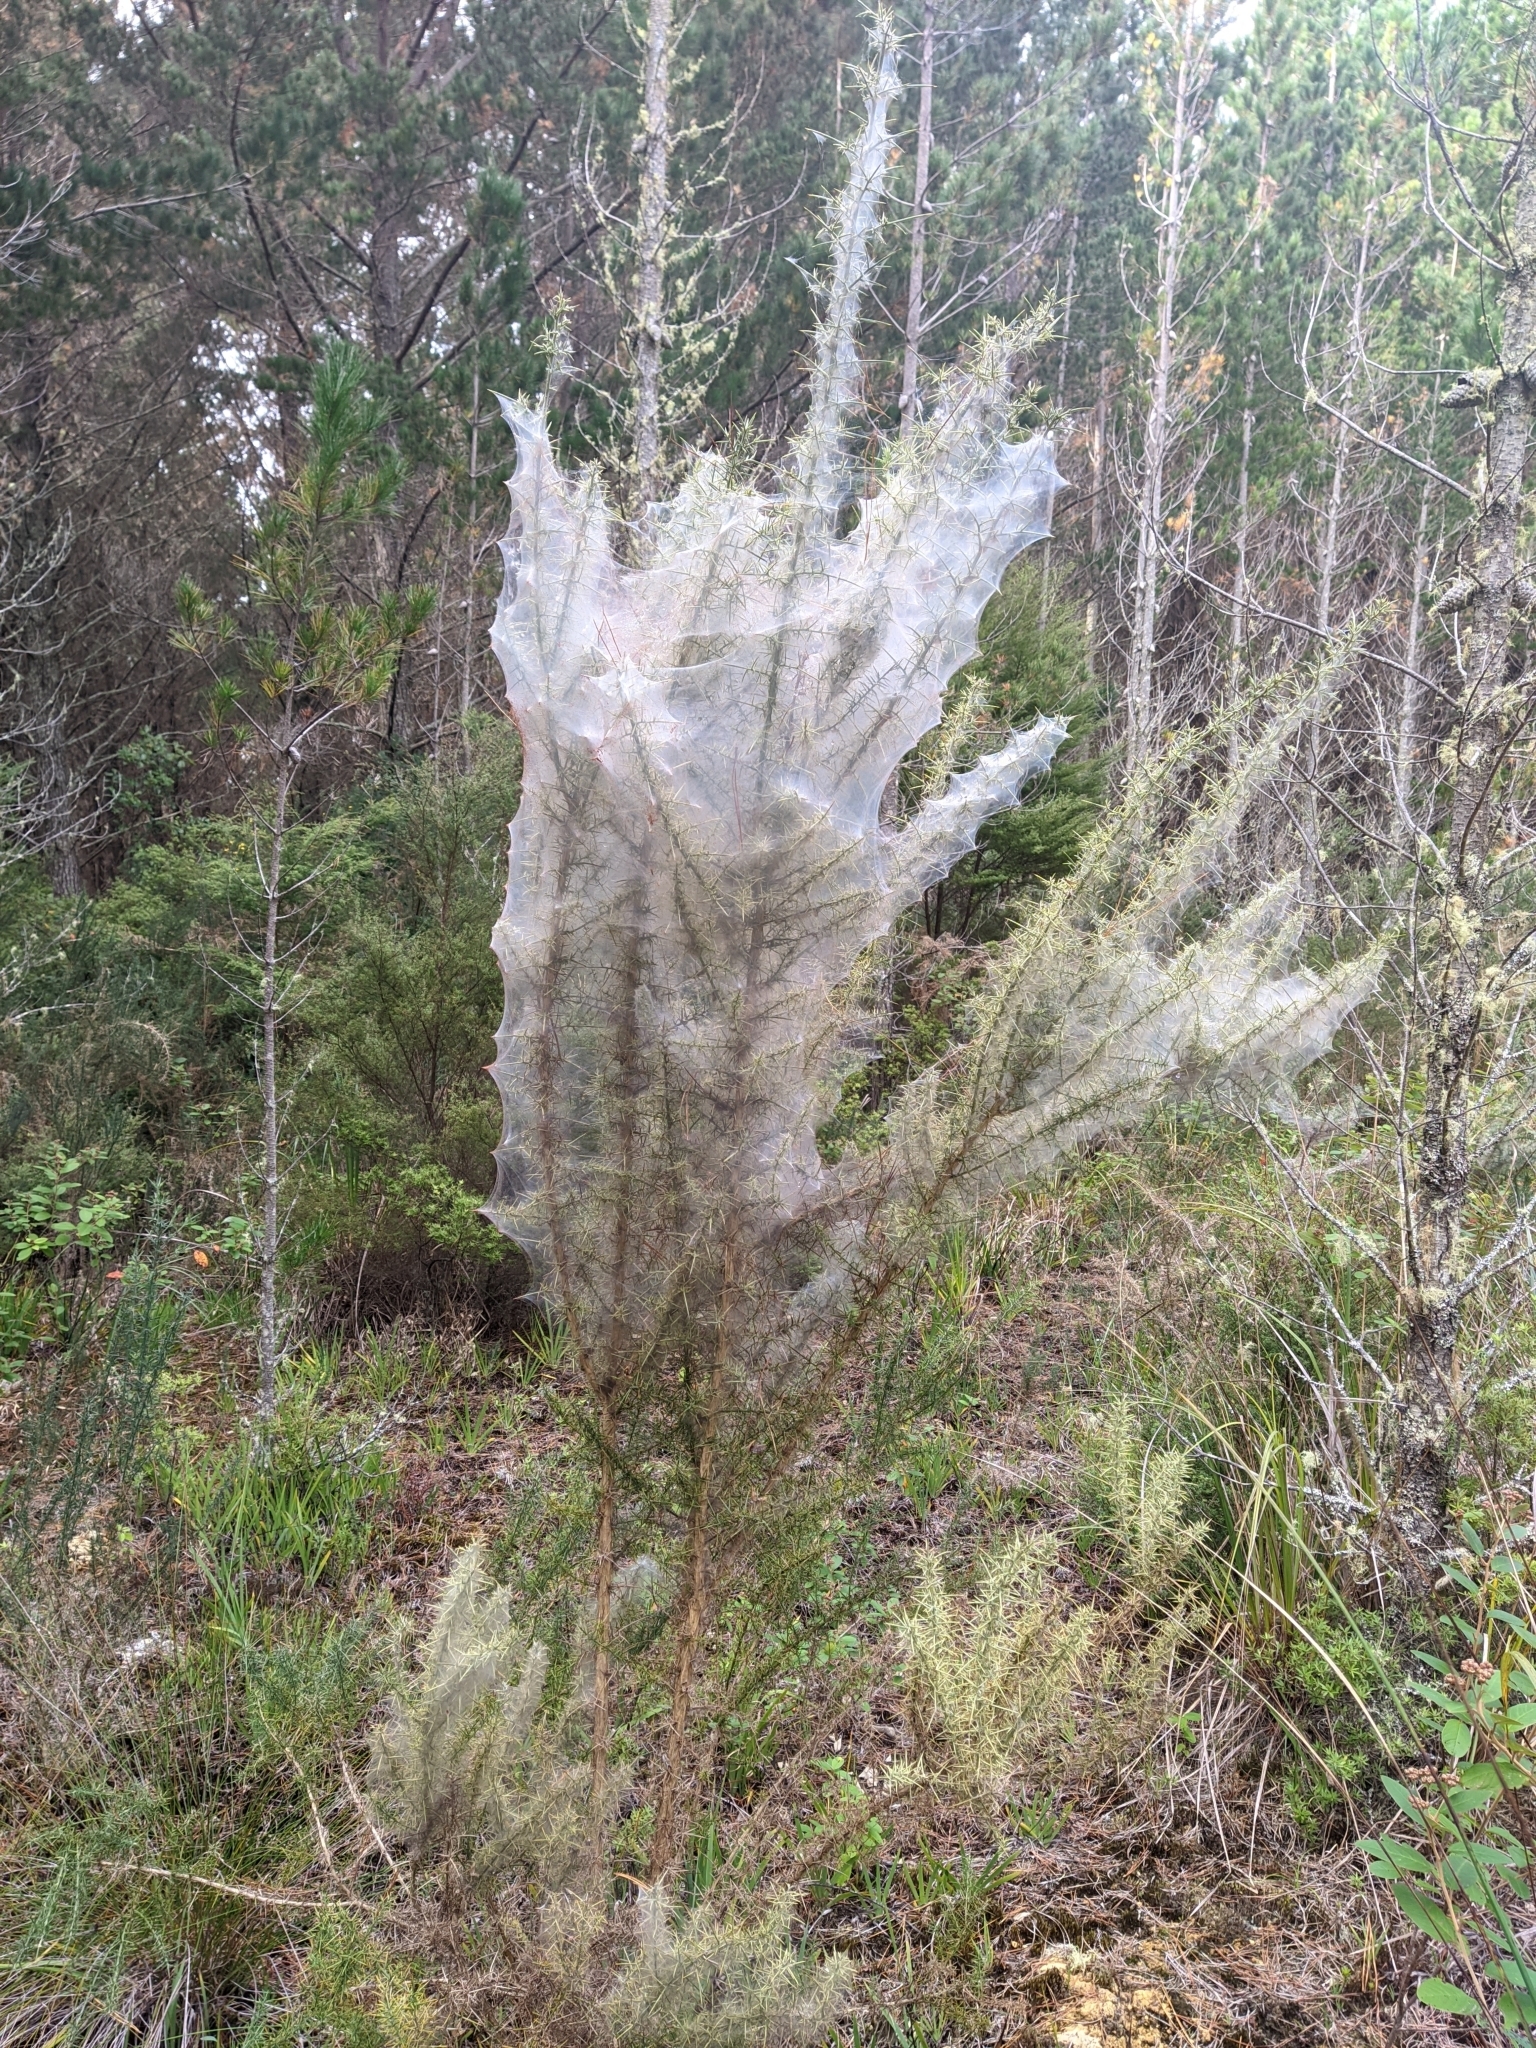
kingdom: Animalia
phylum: Arthropoda
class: Arachnida
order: Trombidiformes
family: Tetranychidae
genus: Tetranychus
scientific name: Tetranychus lintearius
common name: Gorse spider mite
